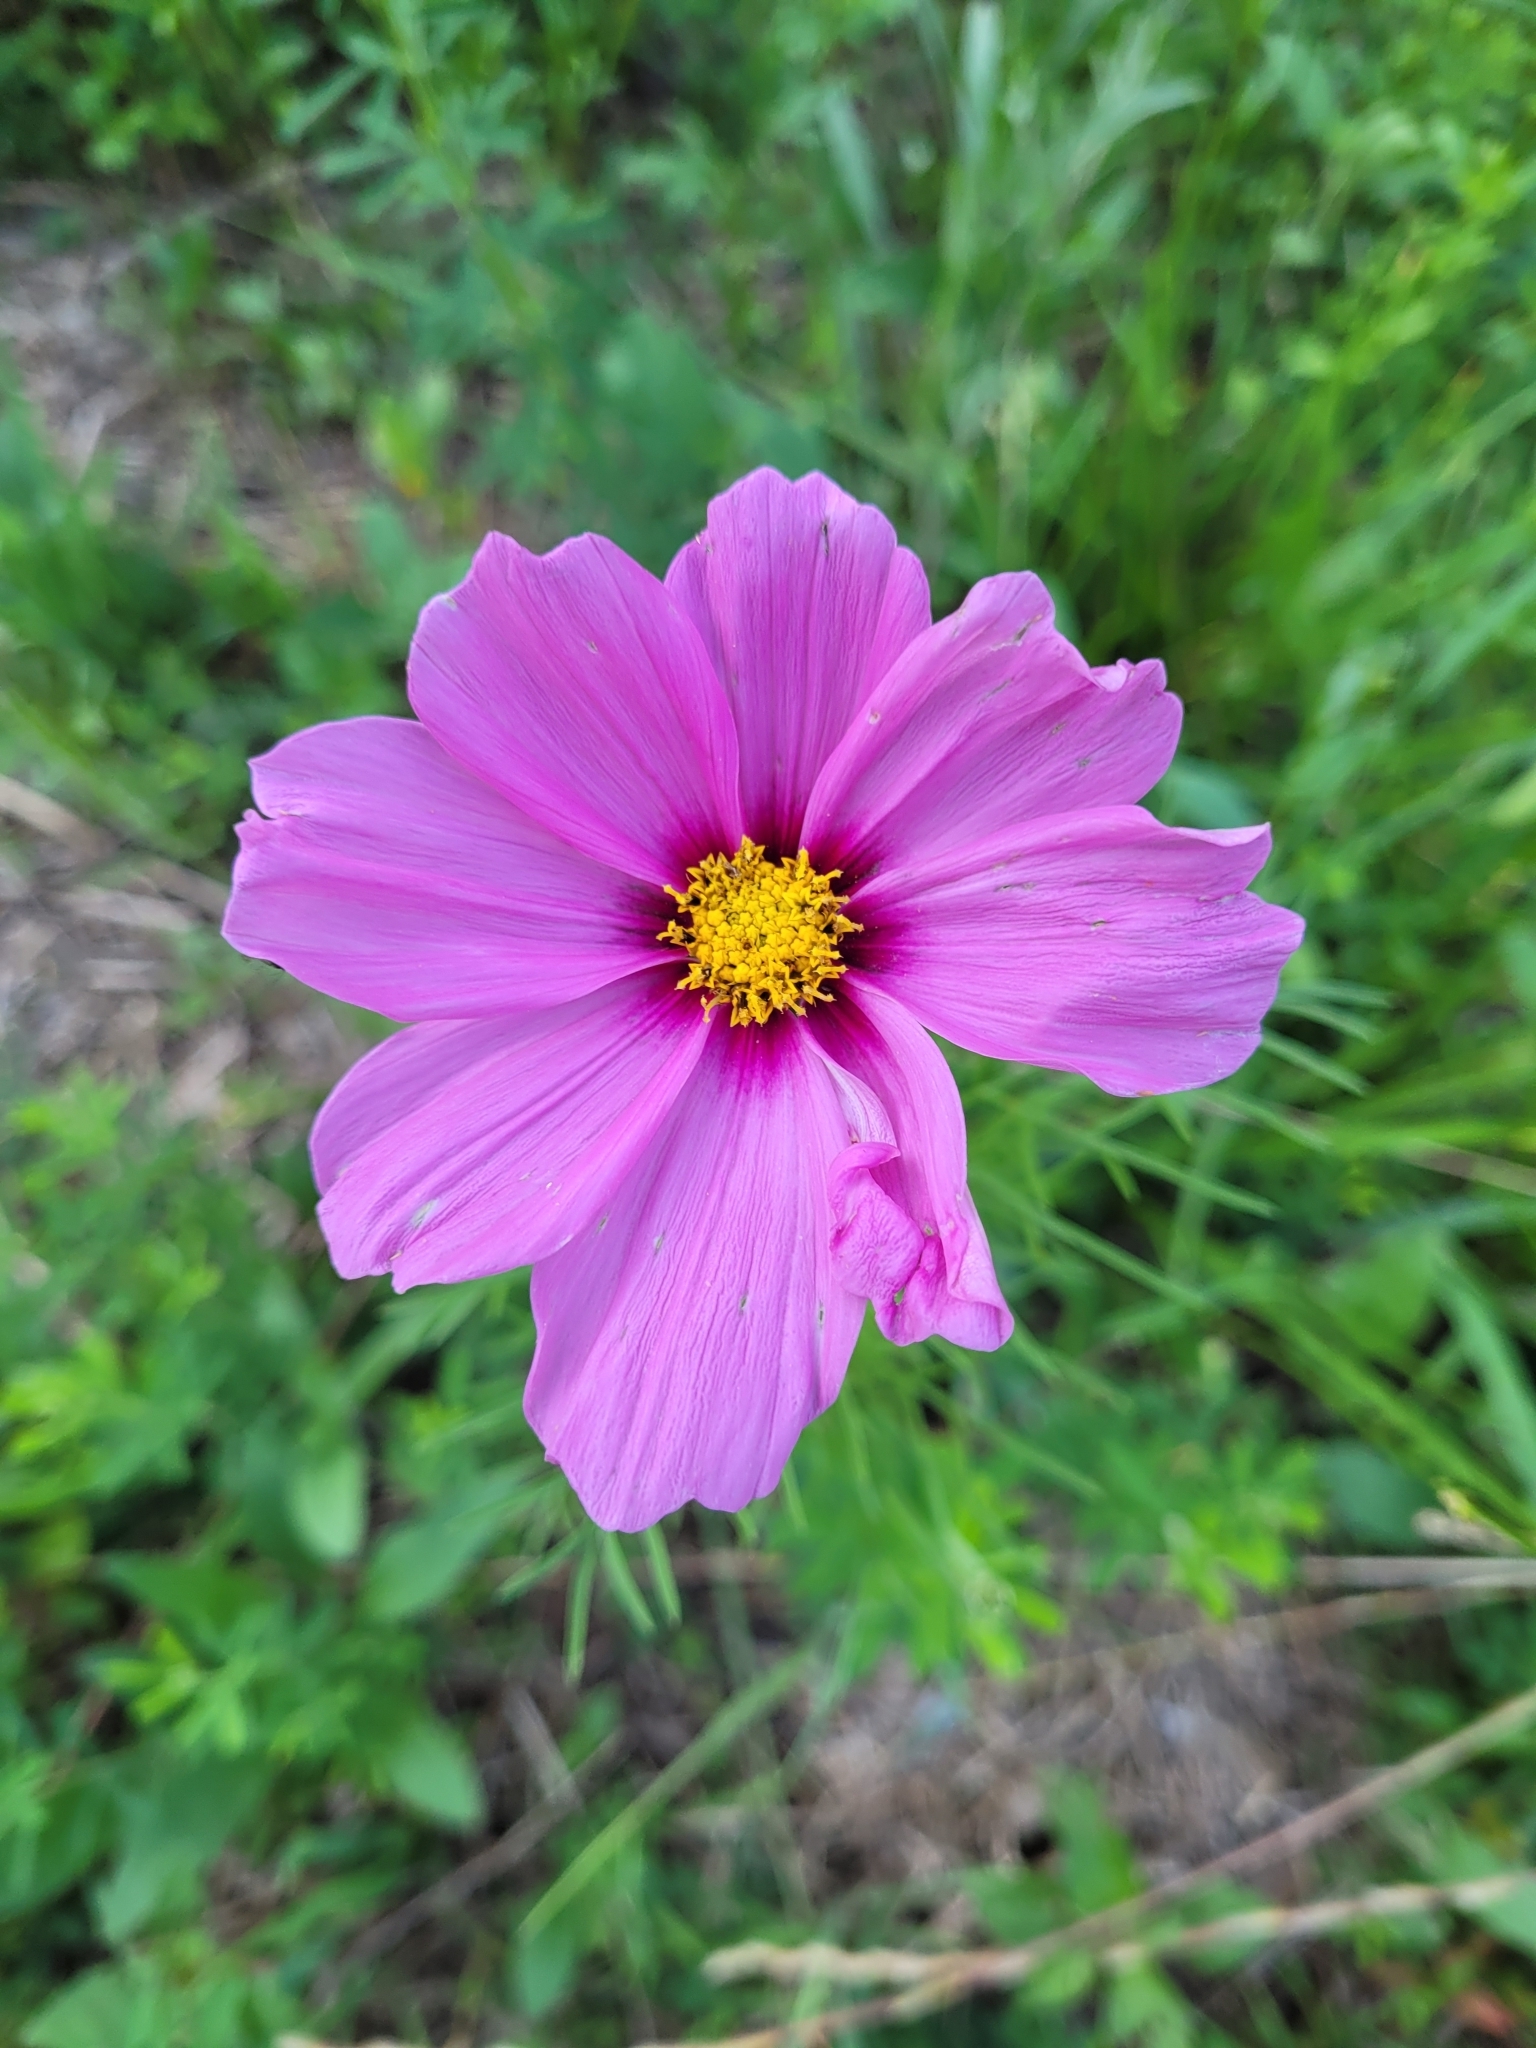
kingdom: Plantae
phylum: Tracheophyta
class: Magnoliopsida
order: Asterales
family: Asteraceae
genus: Cosmos
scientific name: Cosmos bipinnatus
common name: Garden cosmos
